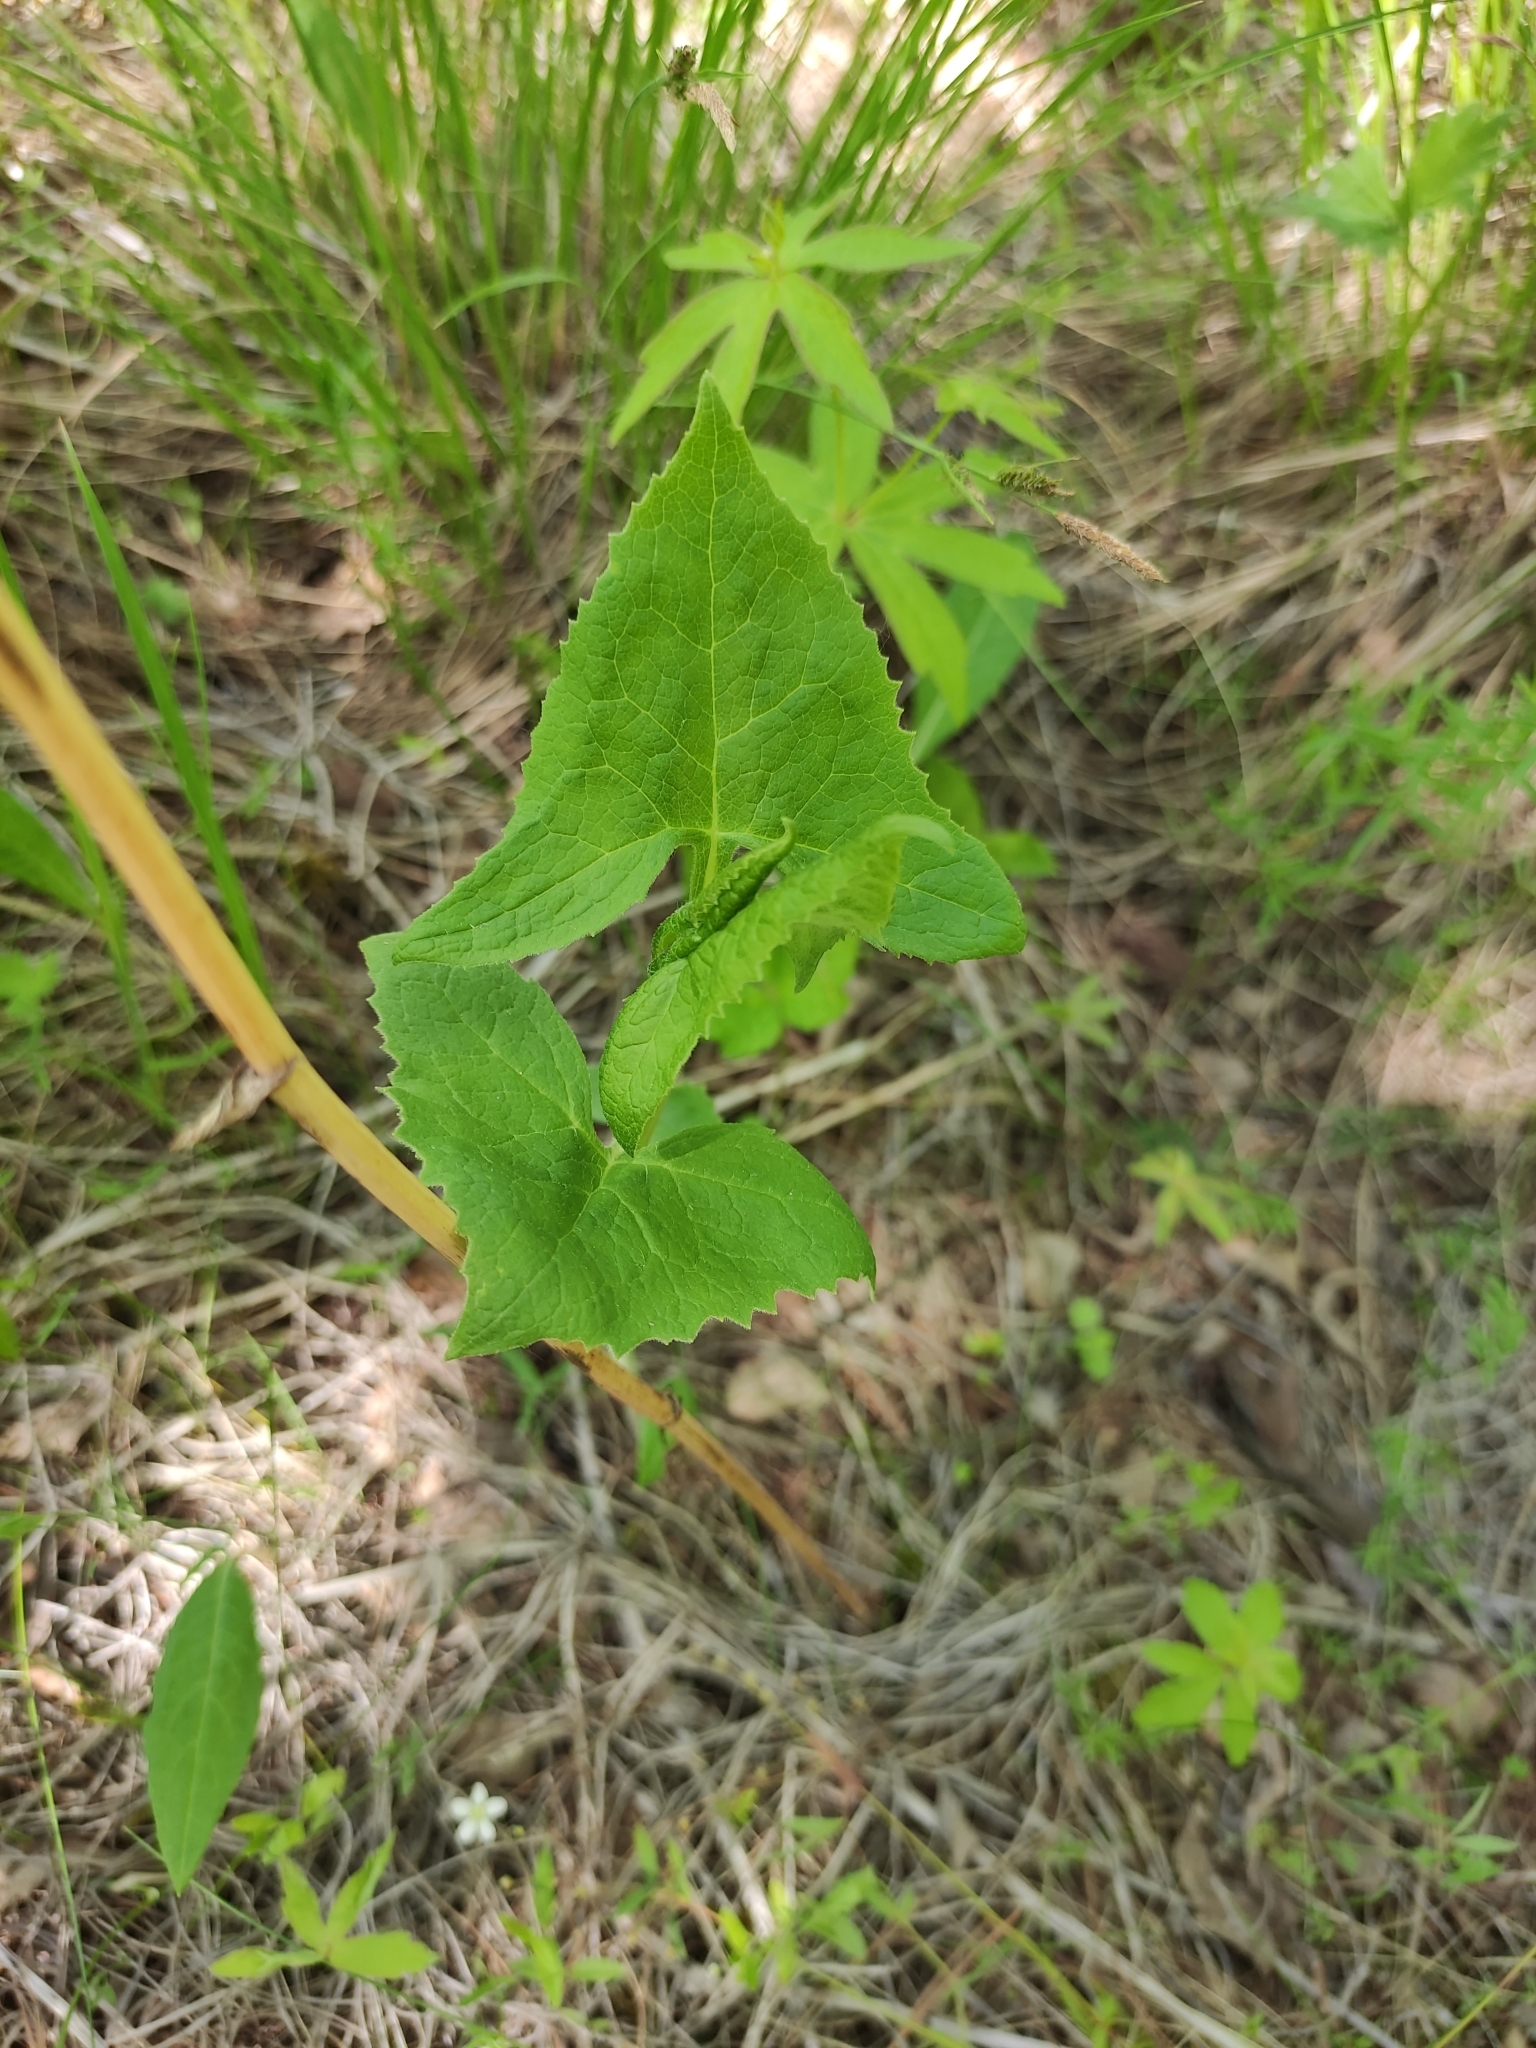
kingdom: Plantae
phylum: Tracheophyta
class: Magnoliopsida
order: Asterales
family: Asteraceae
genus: Parasenecio
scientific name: Parasenecio hastatus
